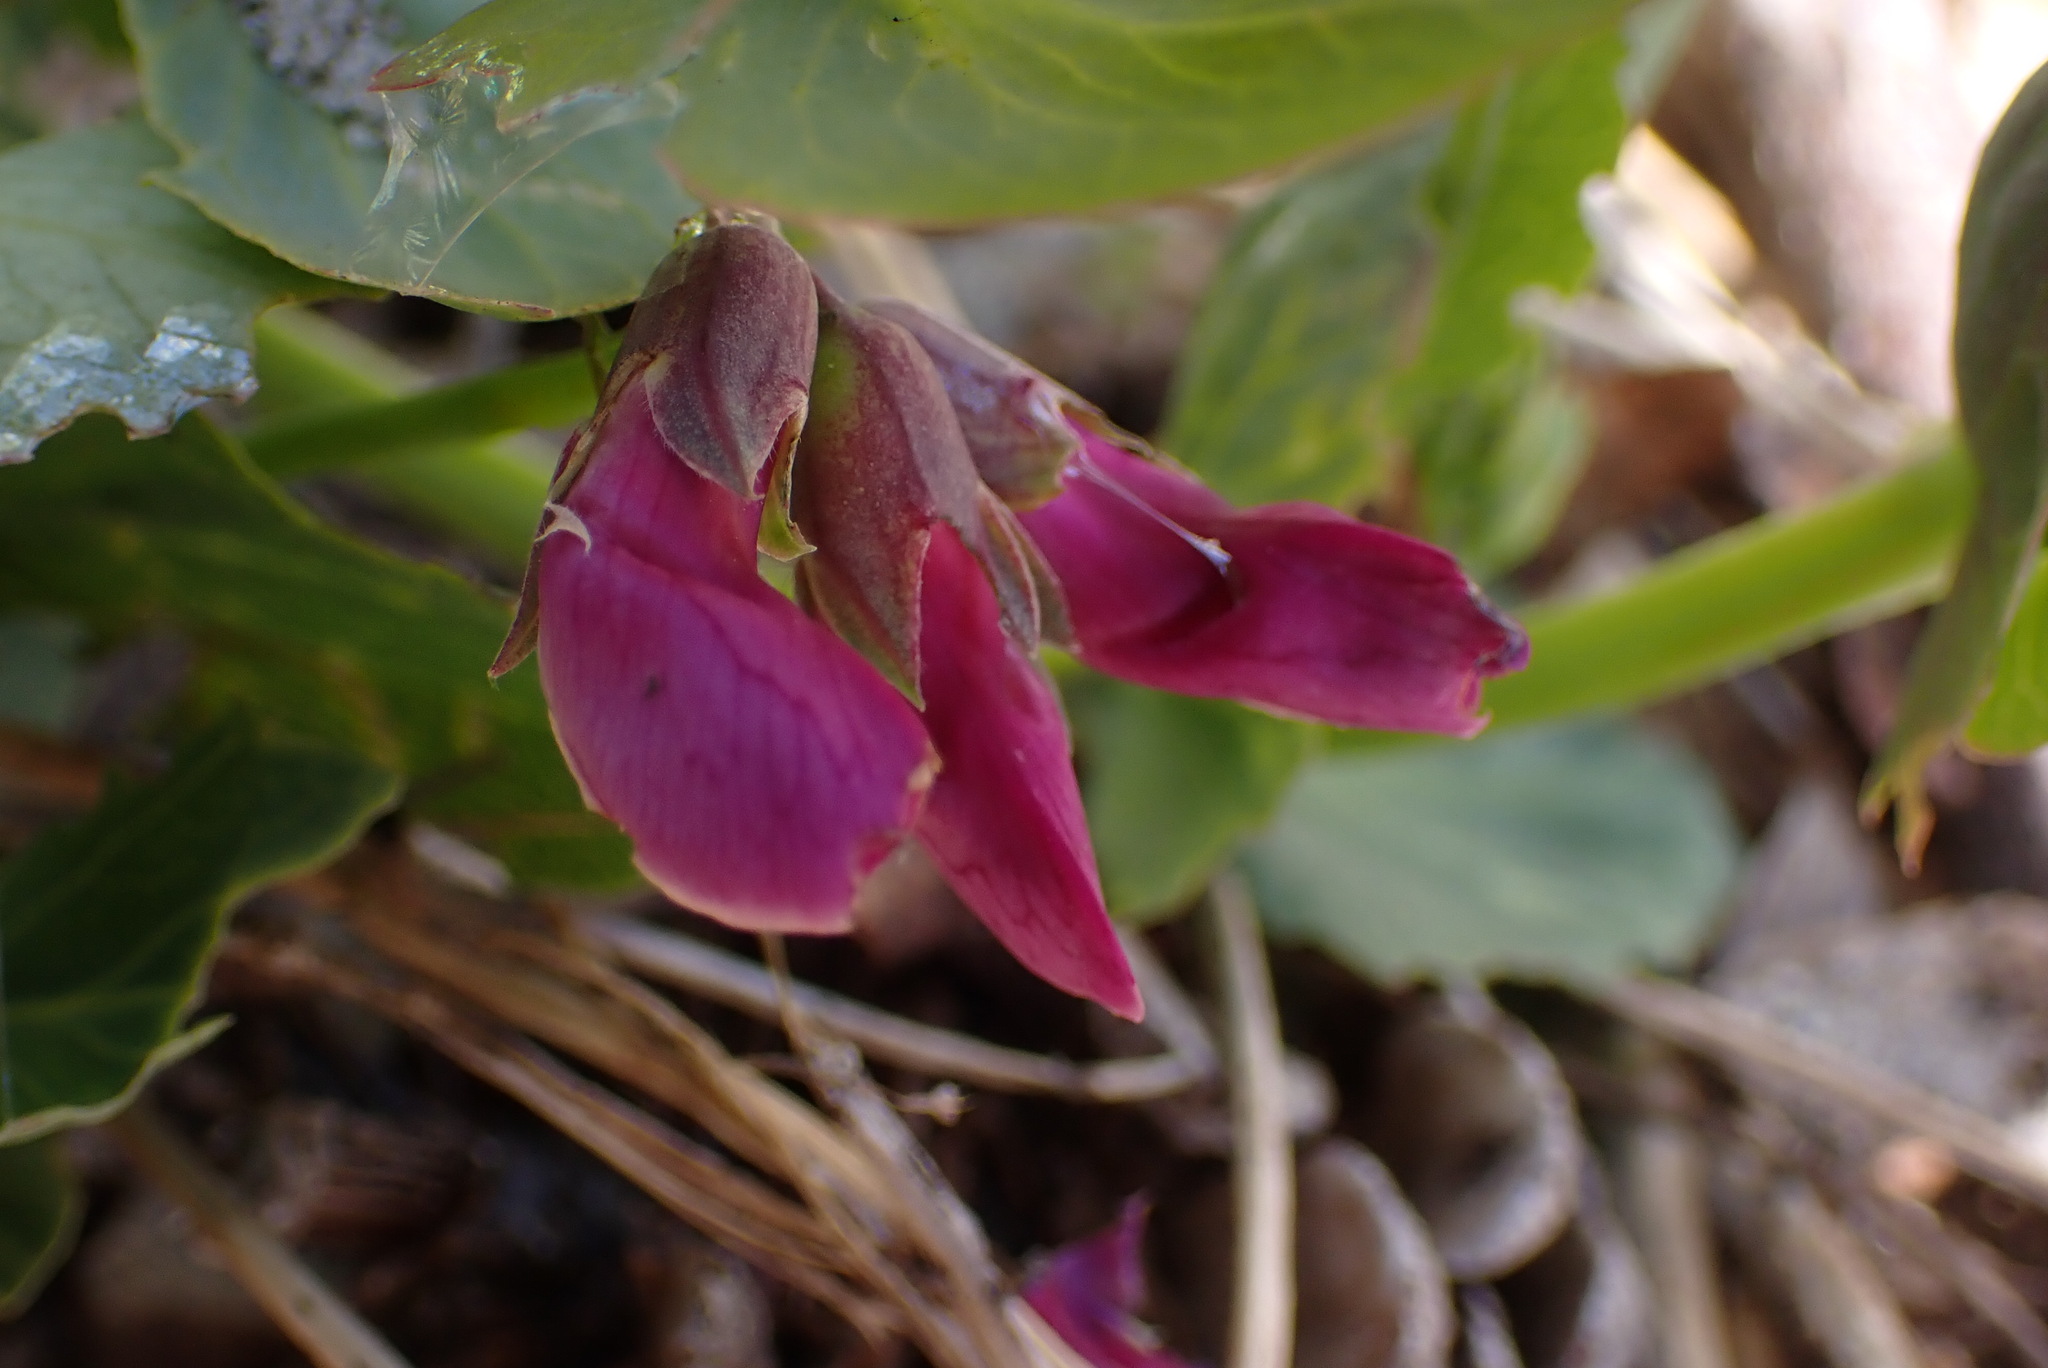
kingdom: Plantae
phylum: Tracheophyta
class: Magnoliopsida
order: Fabales
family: Fabaceae
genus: Lathyrus
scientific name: Lathyrus japonicus
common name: Sea pea
